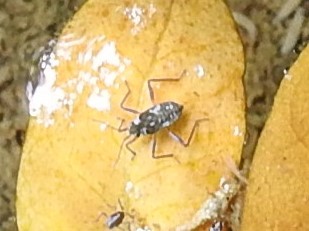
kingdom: Animalia
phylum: Arthropoda
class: Insecta
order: Hemiptera
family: Veliidae
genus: Microvelia
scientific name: Microvelia americana
